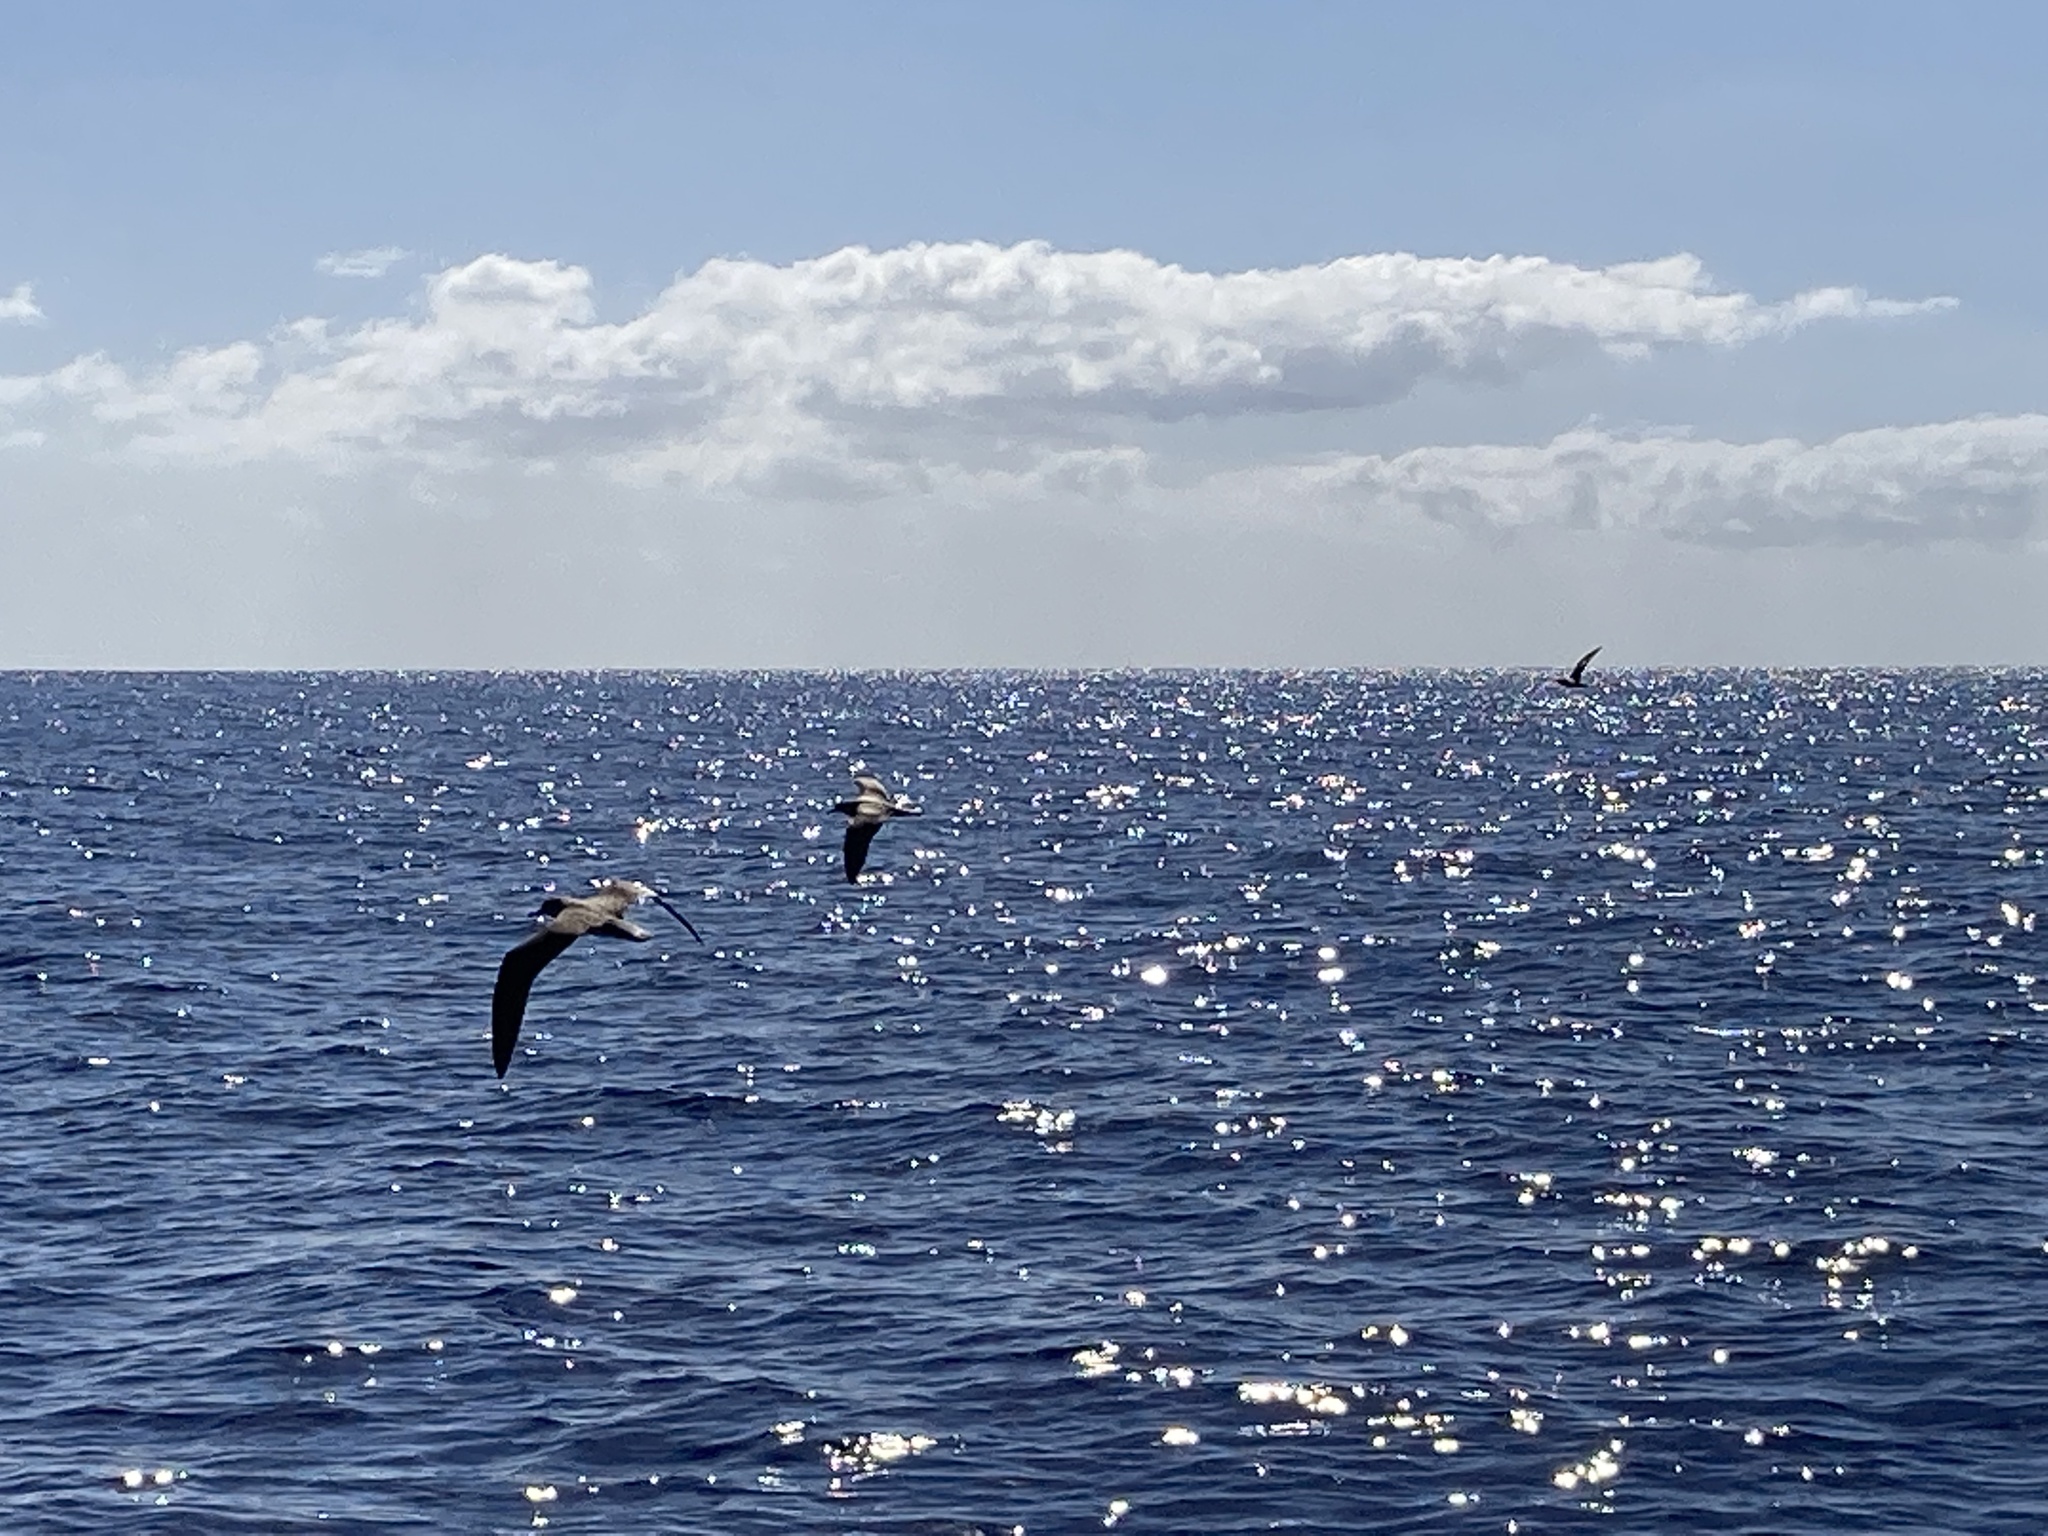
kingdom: Animalia
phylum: Chordata
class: Aves
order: Procellariiformes
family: Procellariidae
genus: Calonectris
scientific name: Calonectris diomedea
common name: Cory's shearwater
